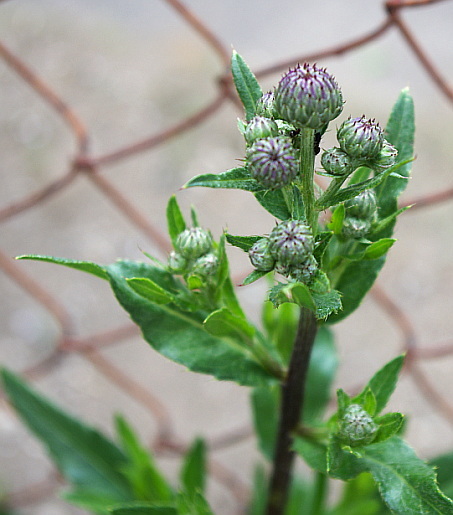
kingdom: Plantae
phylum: Tracheophyta
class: Magnoliopsida
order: Asterales
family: Asteraceae
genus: Cirsium
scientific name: Cirsium arvense
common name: Creeping thistle
